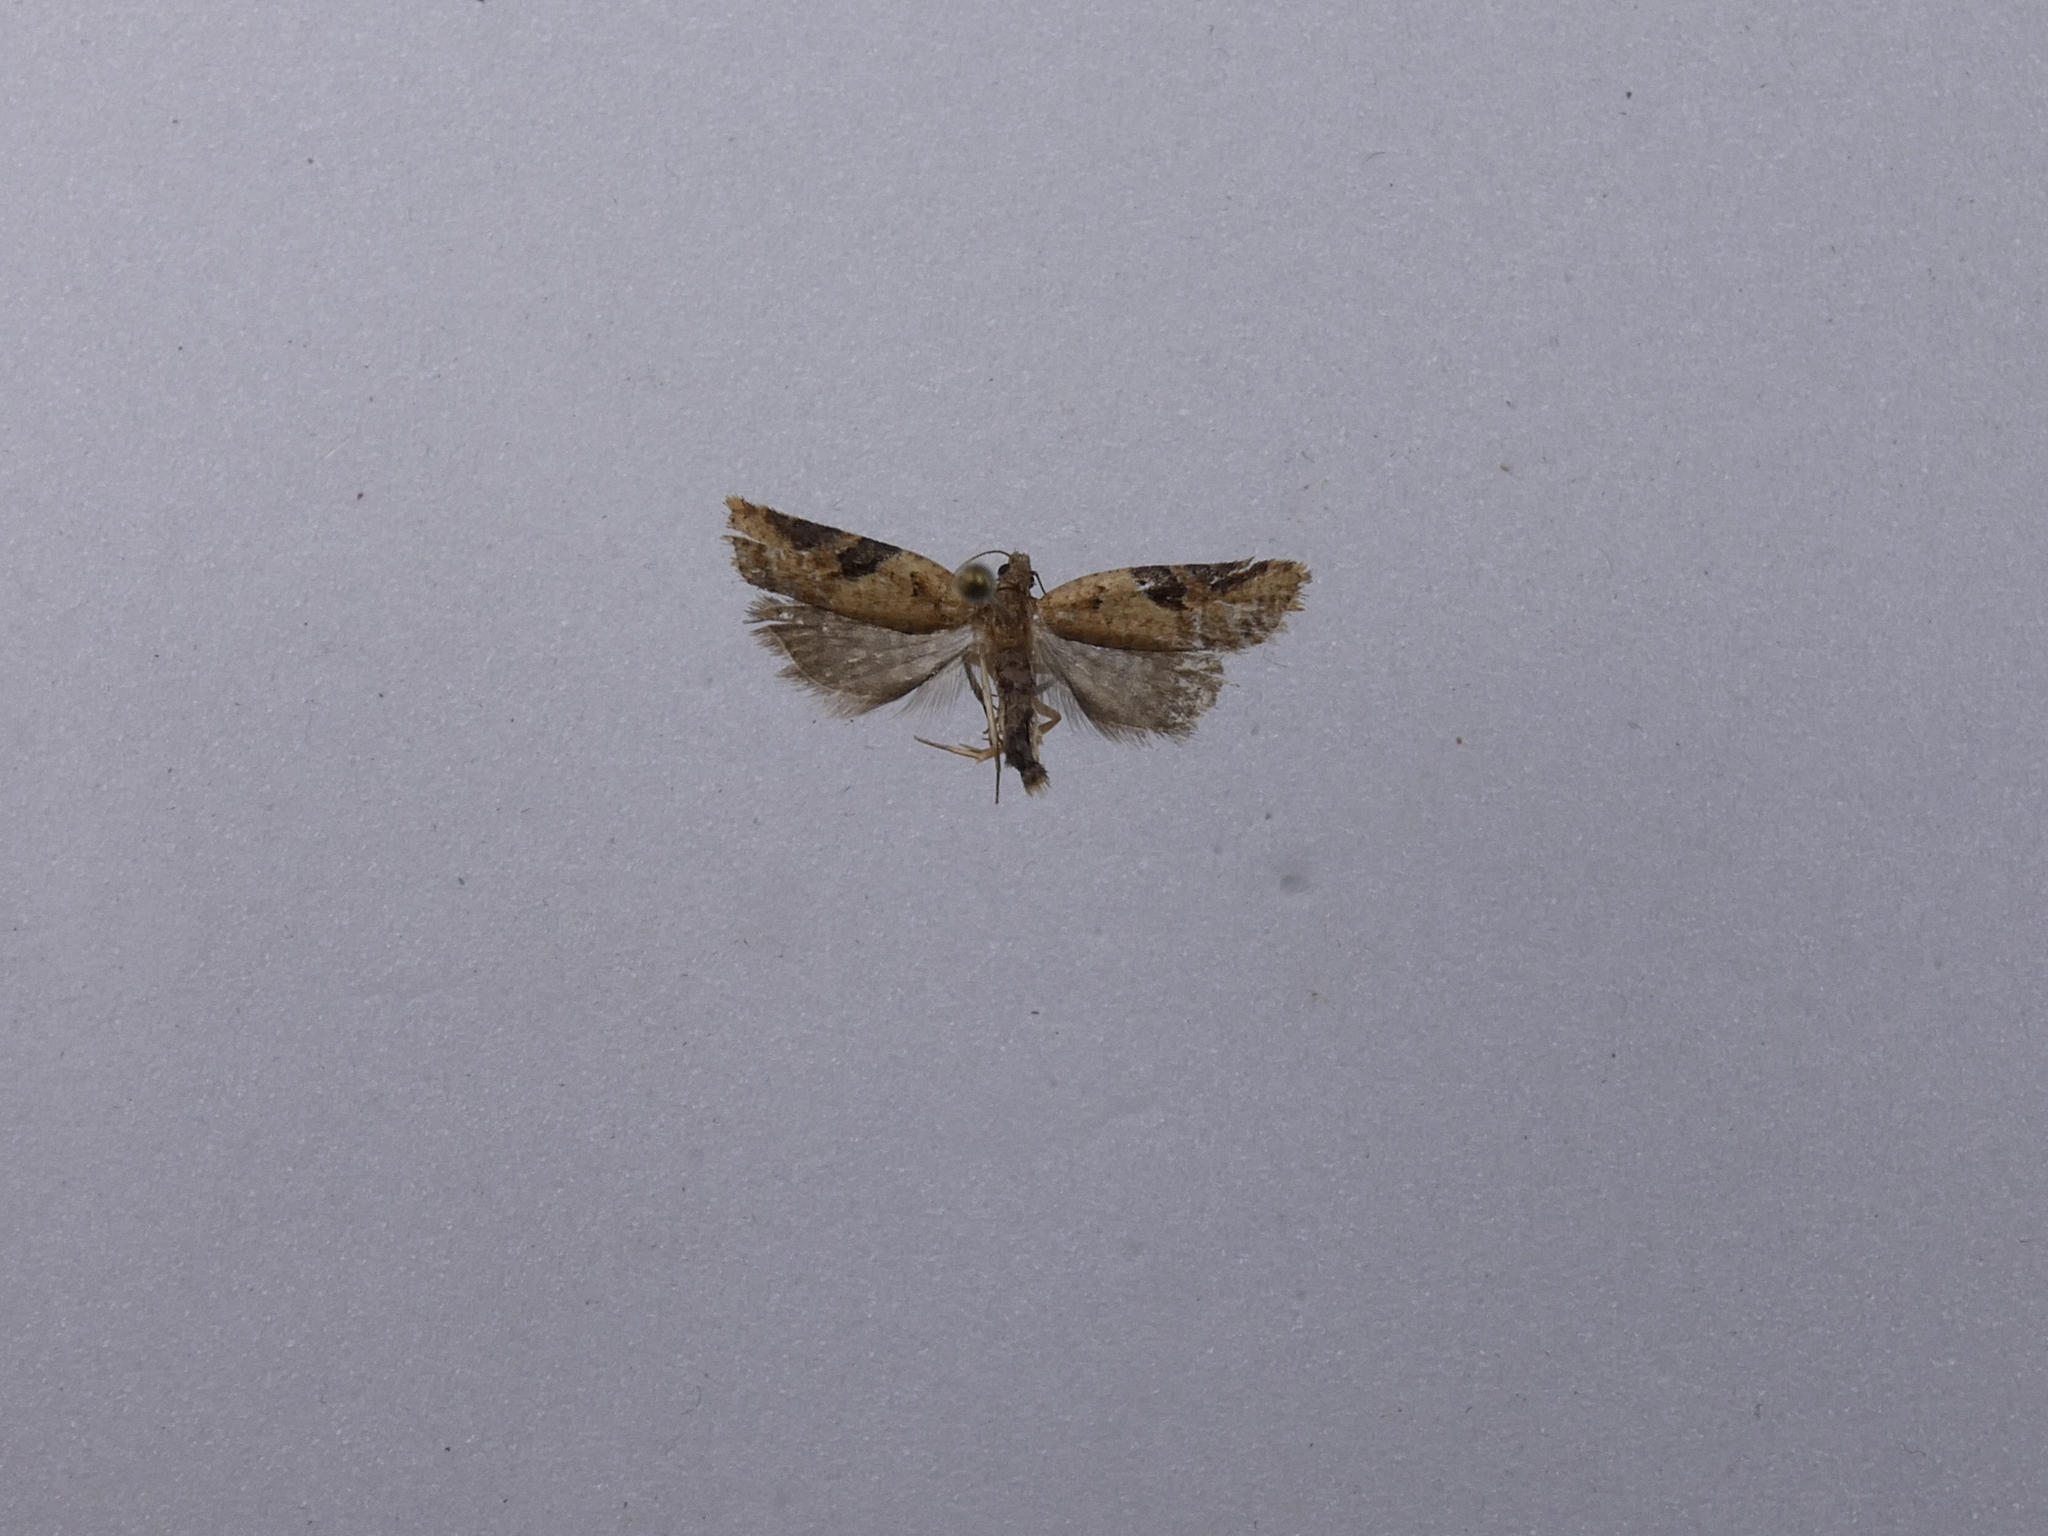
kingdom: Animalia
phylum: Arthropoda
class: Insecta
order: Lepidoptera
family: Tortricidae
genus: Capua
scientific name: Capua semiferana
